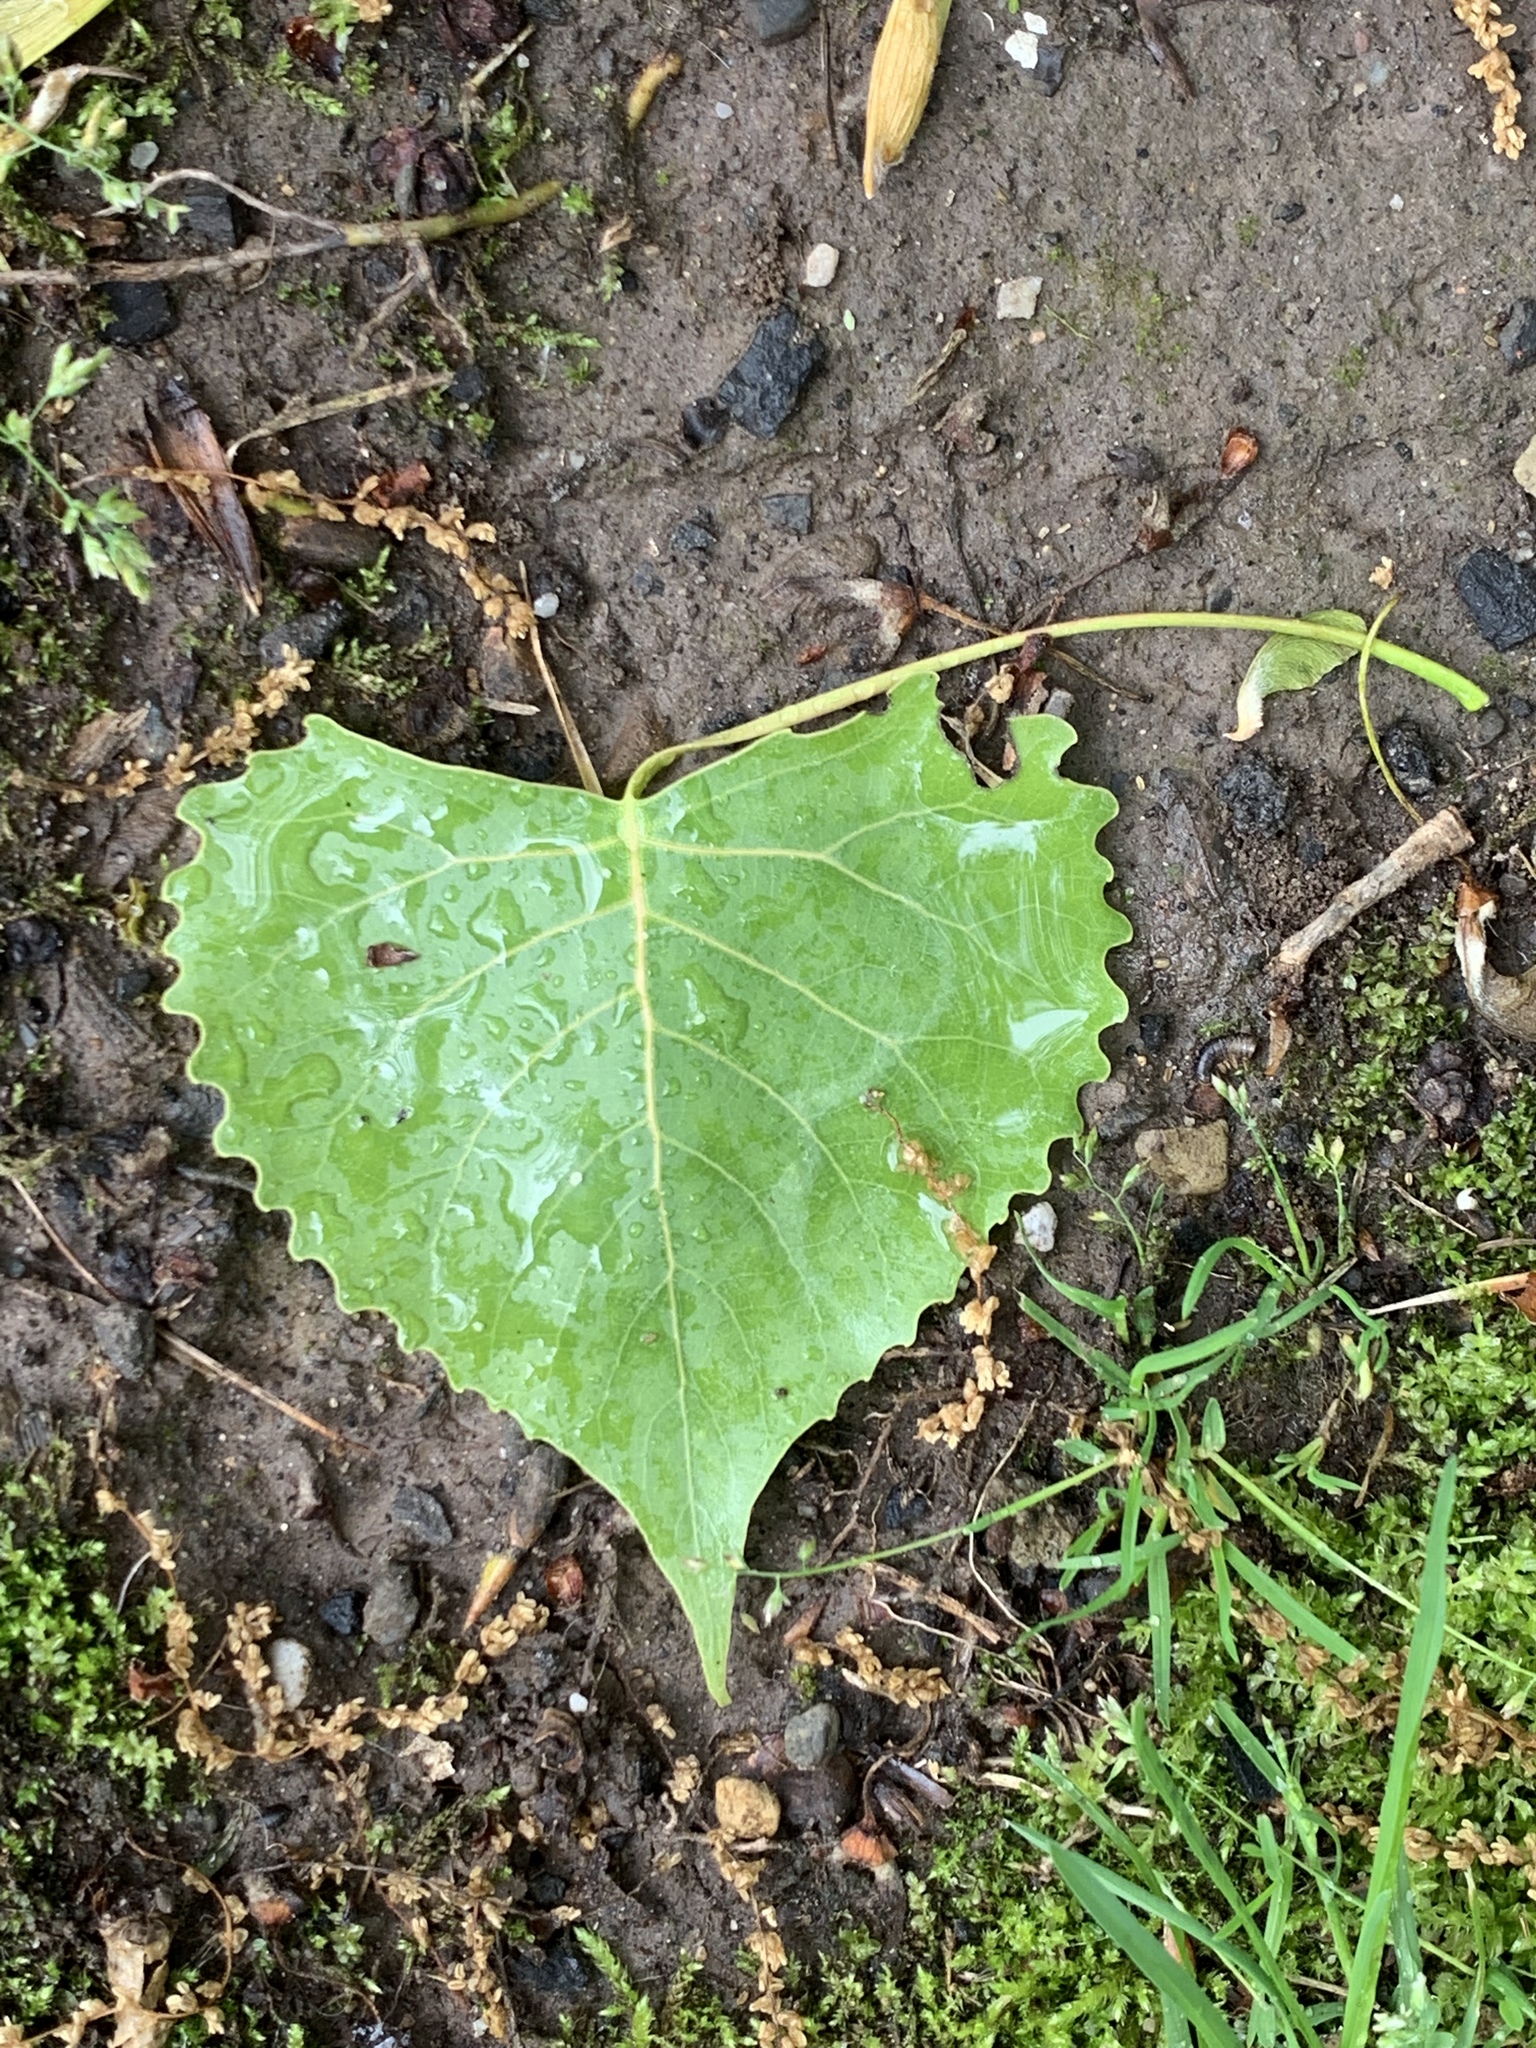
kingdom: Plantae
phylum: Tracheophyta
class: Magnoliopsida
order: Malpighiales
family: Salicaceae
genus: Populus
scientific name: Populus deltoides
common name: Eastern cottonwood
